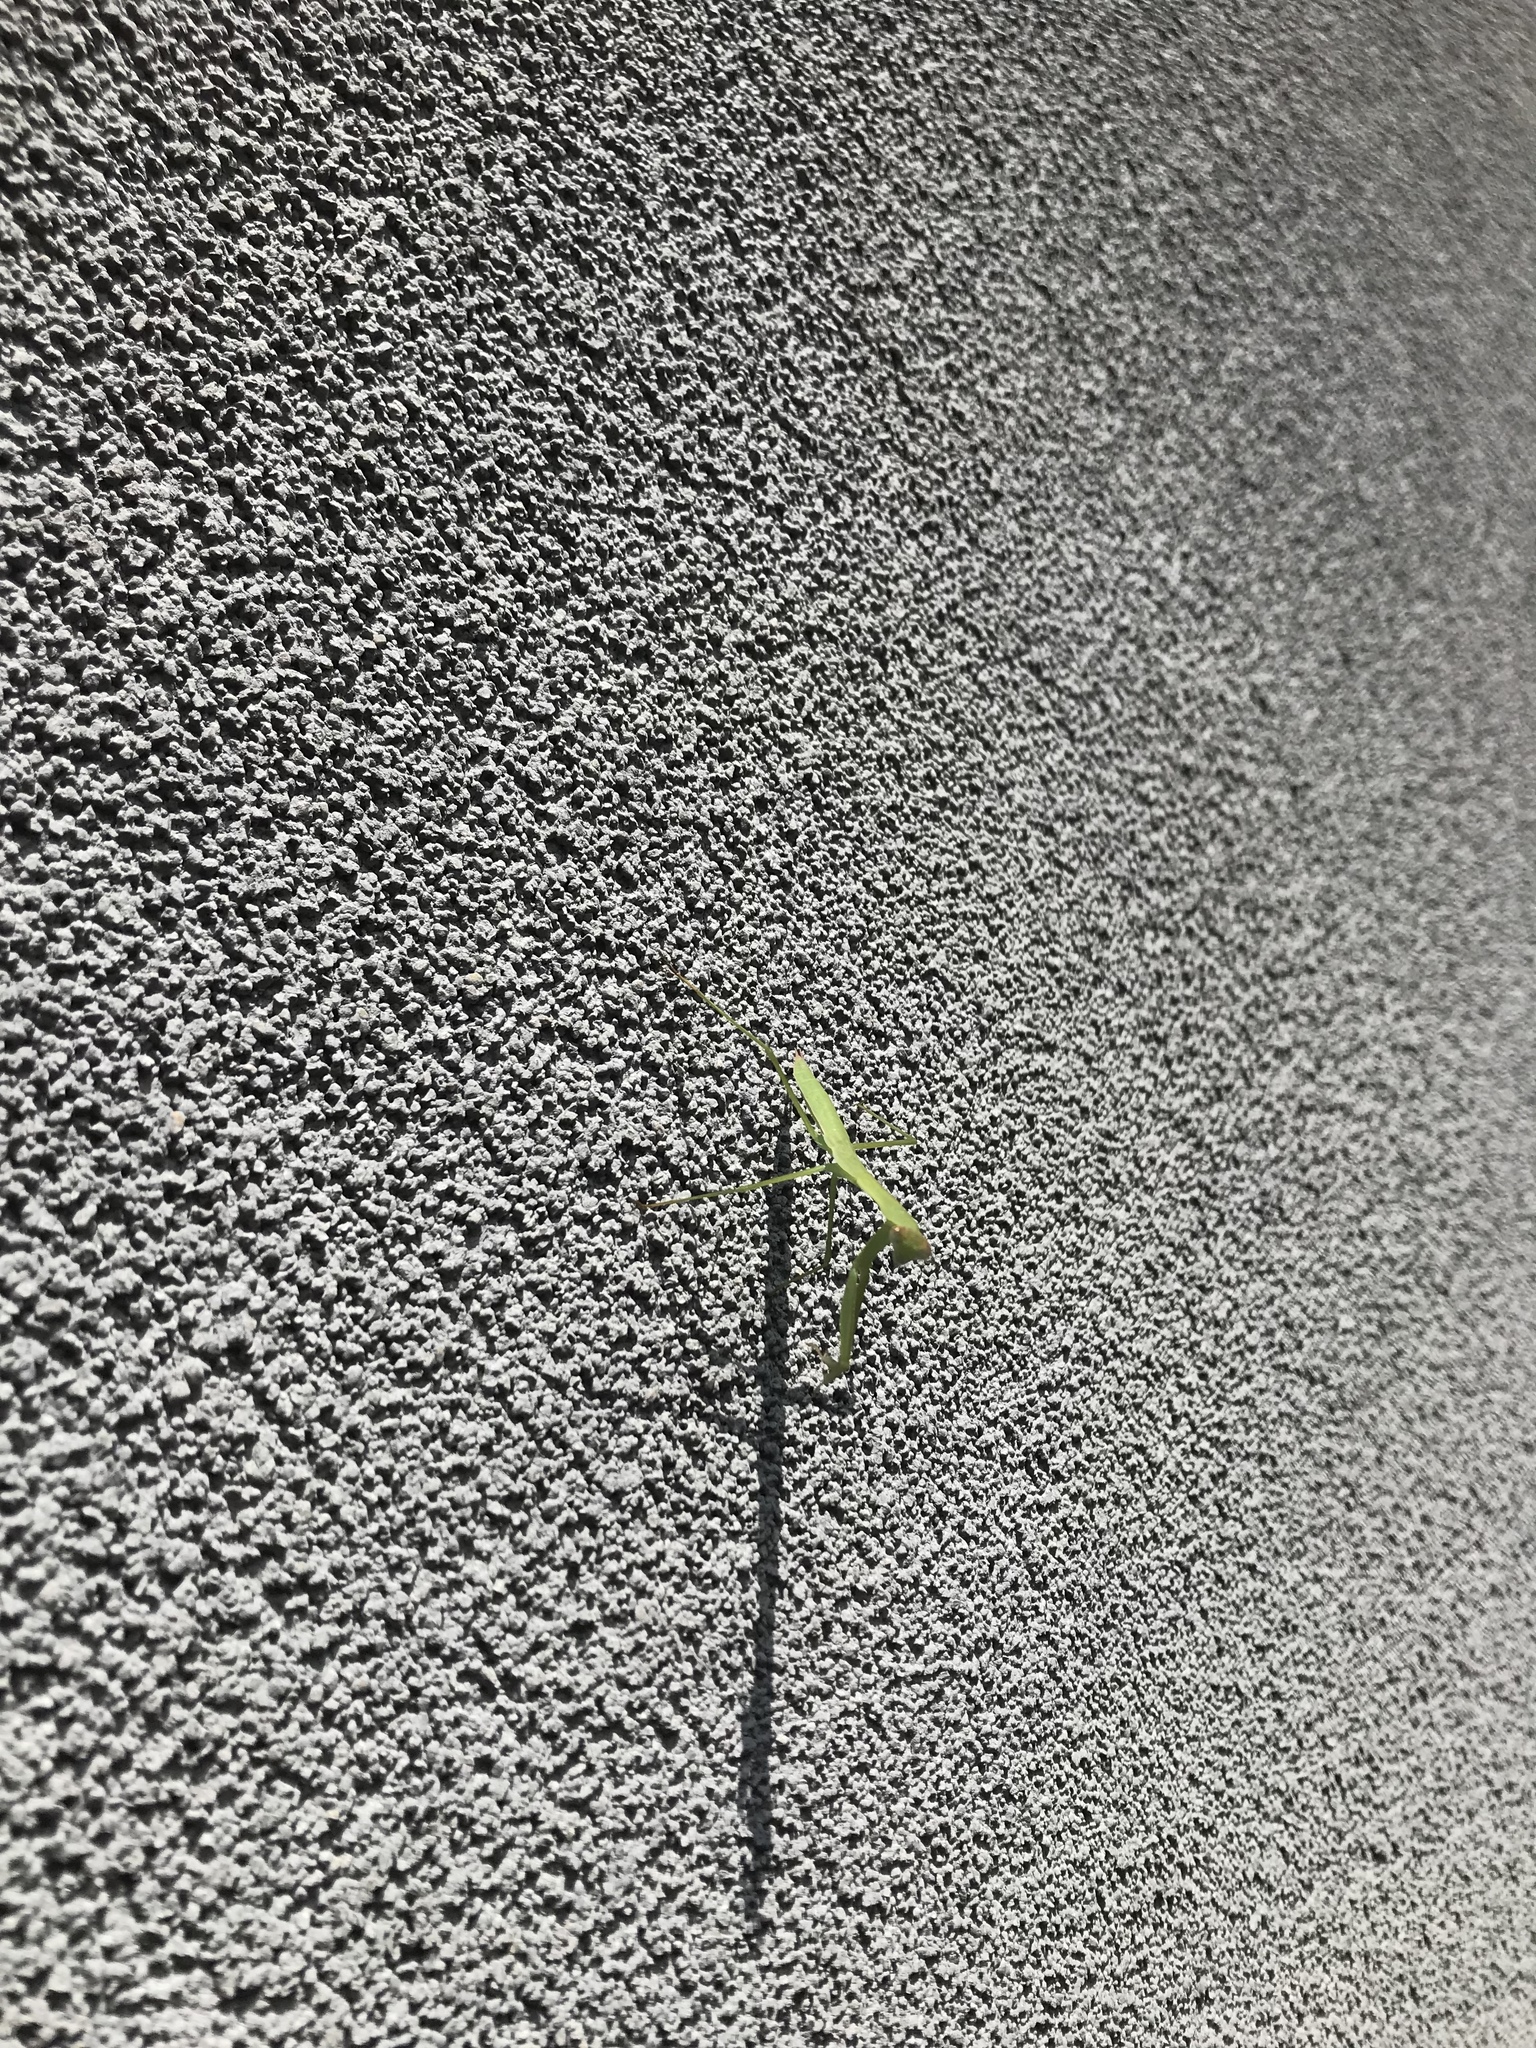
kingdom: Animalia
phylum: Arthropoda
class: Insecta
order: Mantodea
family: Mantidae
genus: Tenodera
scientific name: Tenodera sinensis
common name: Chinese mantis
